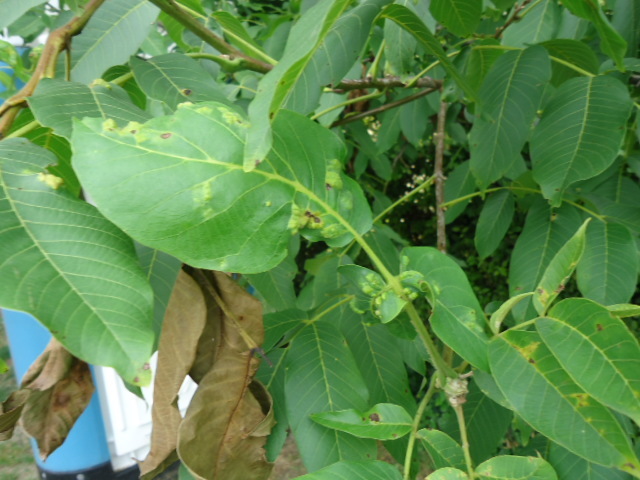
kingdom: Animalia
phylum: Arthropoda
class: Arachnida
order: Trombidiformes
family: Eriophyidae
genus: Aceria
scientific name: Aceria erinea
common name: Persian walnut erineum mite
